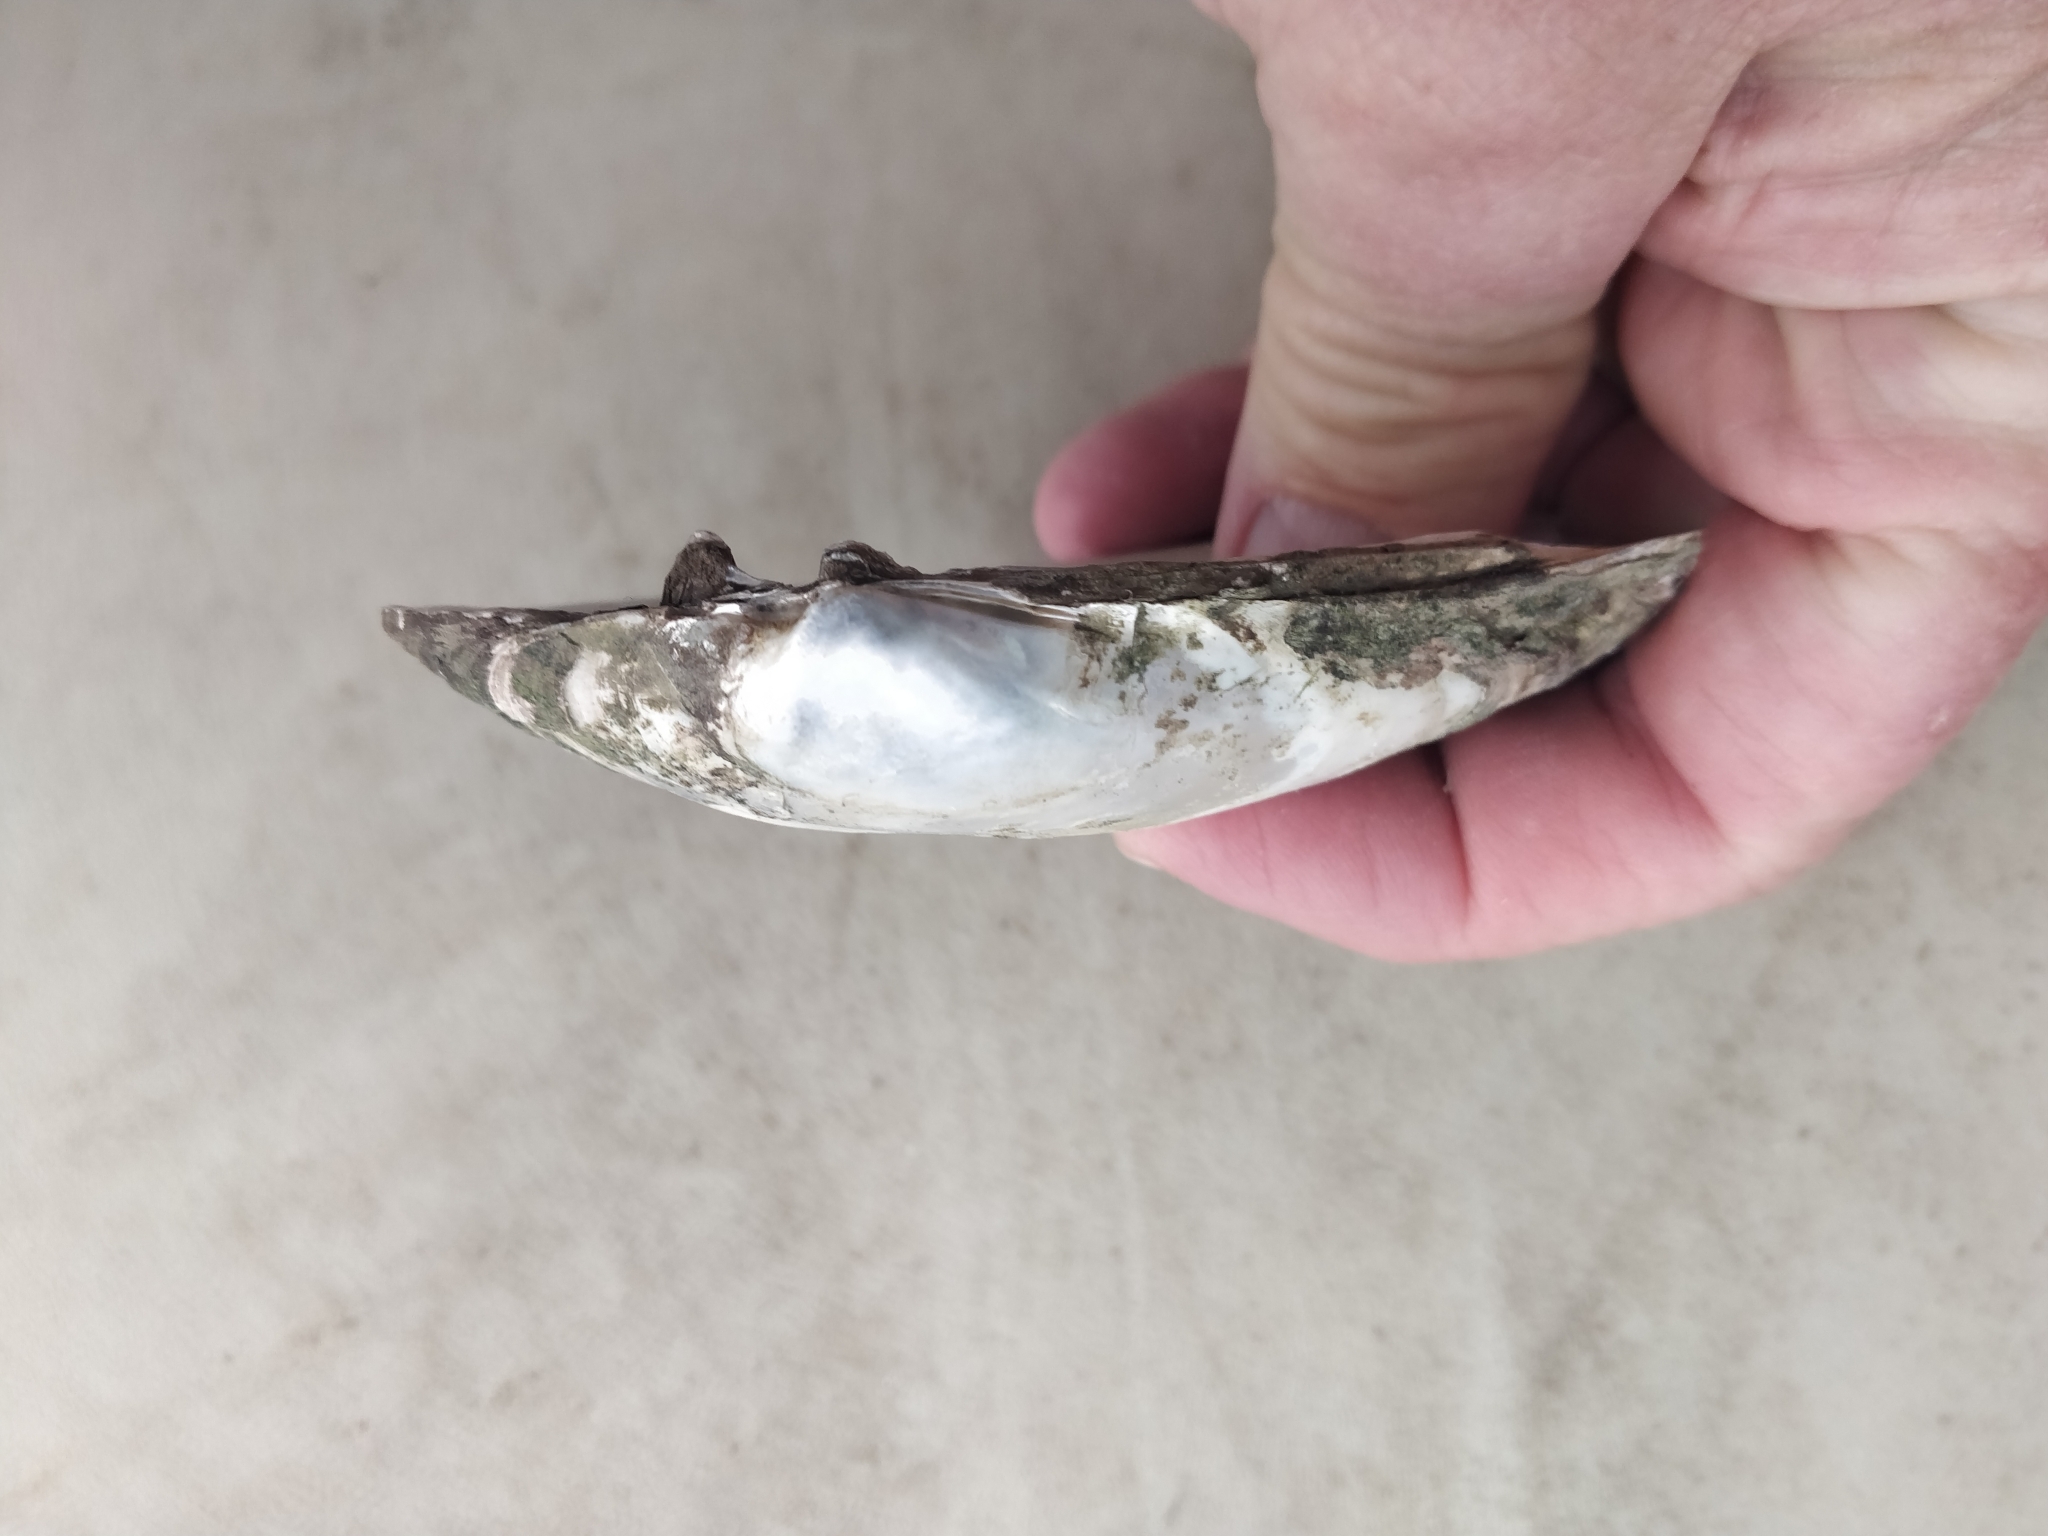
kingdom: Animalia
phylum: Mollusca
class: Bivalvia
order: Unionida
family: Unionidae
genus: Lampsilis
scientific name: Lampsilis siliquoidea
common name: Fatmucket
